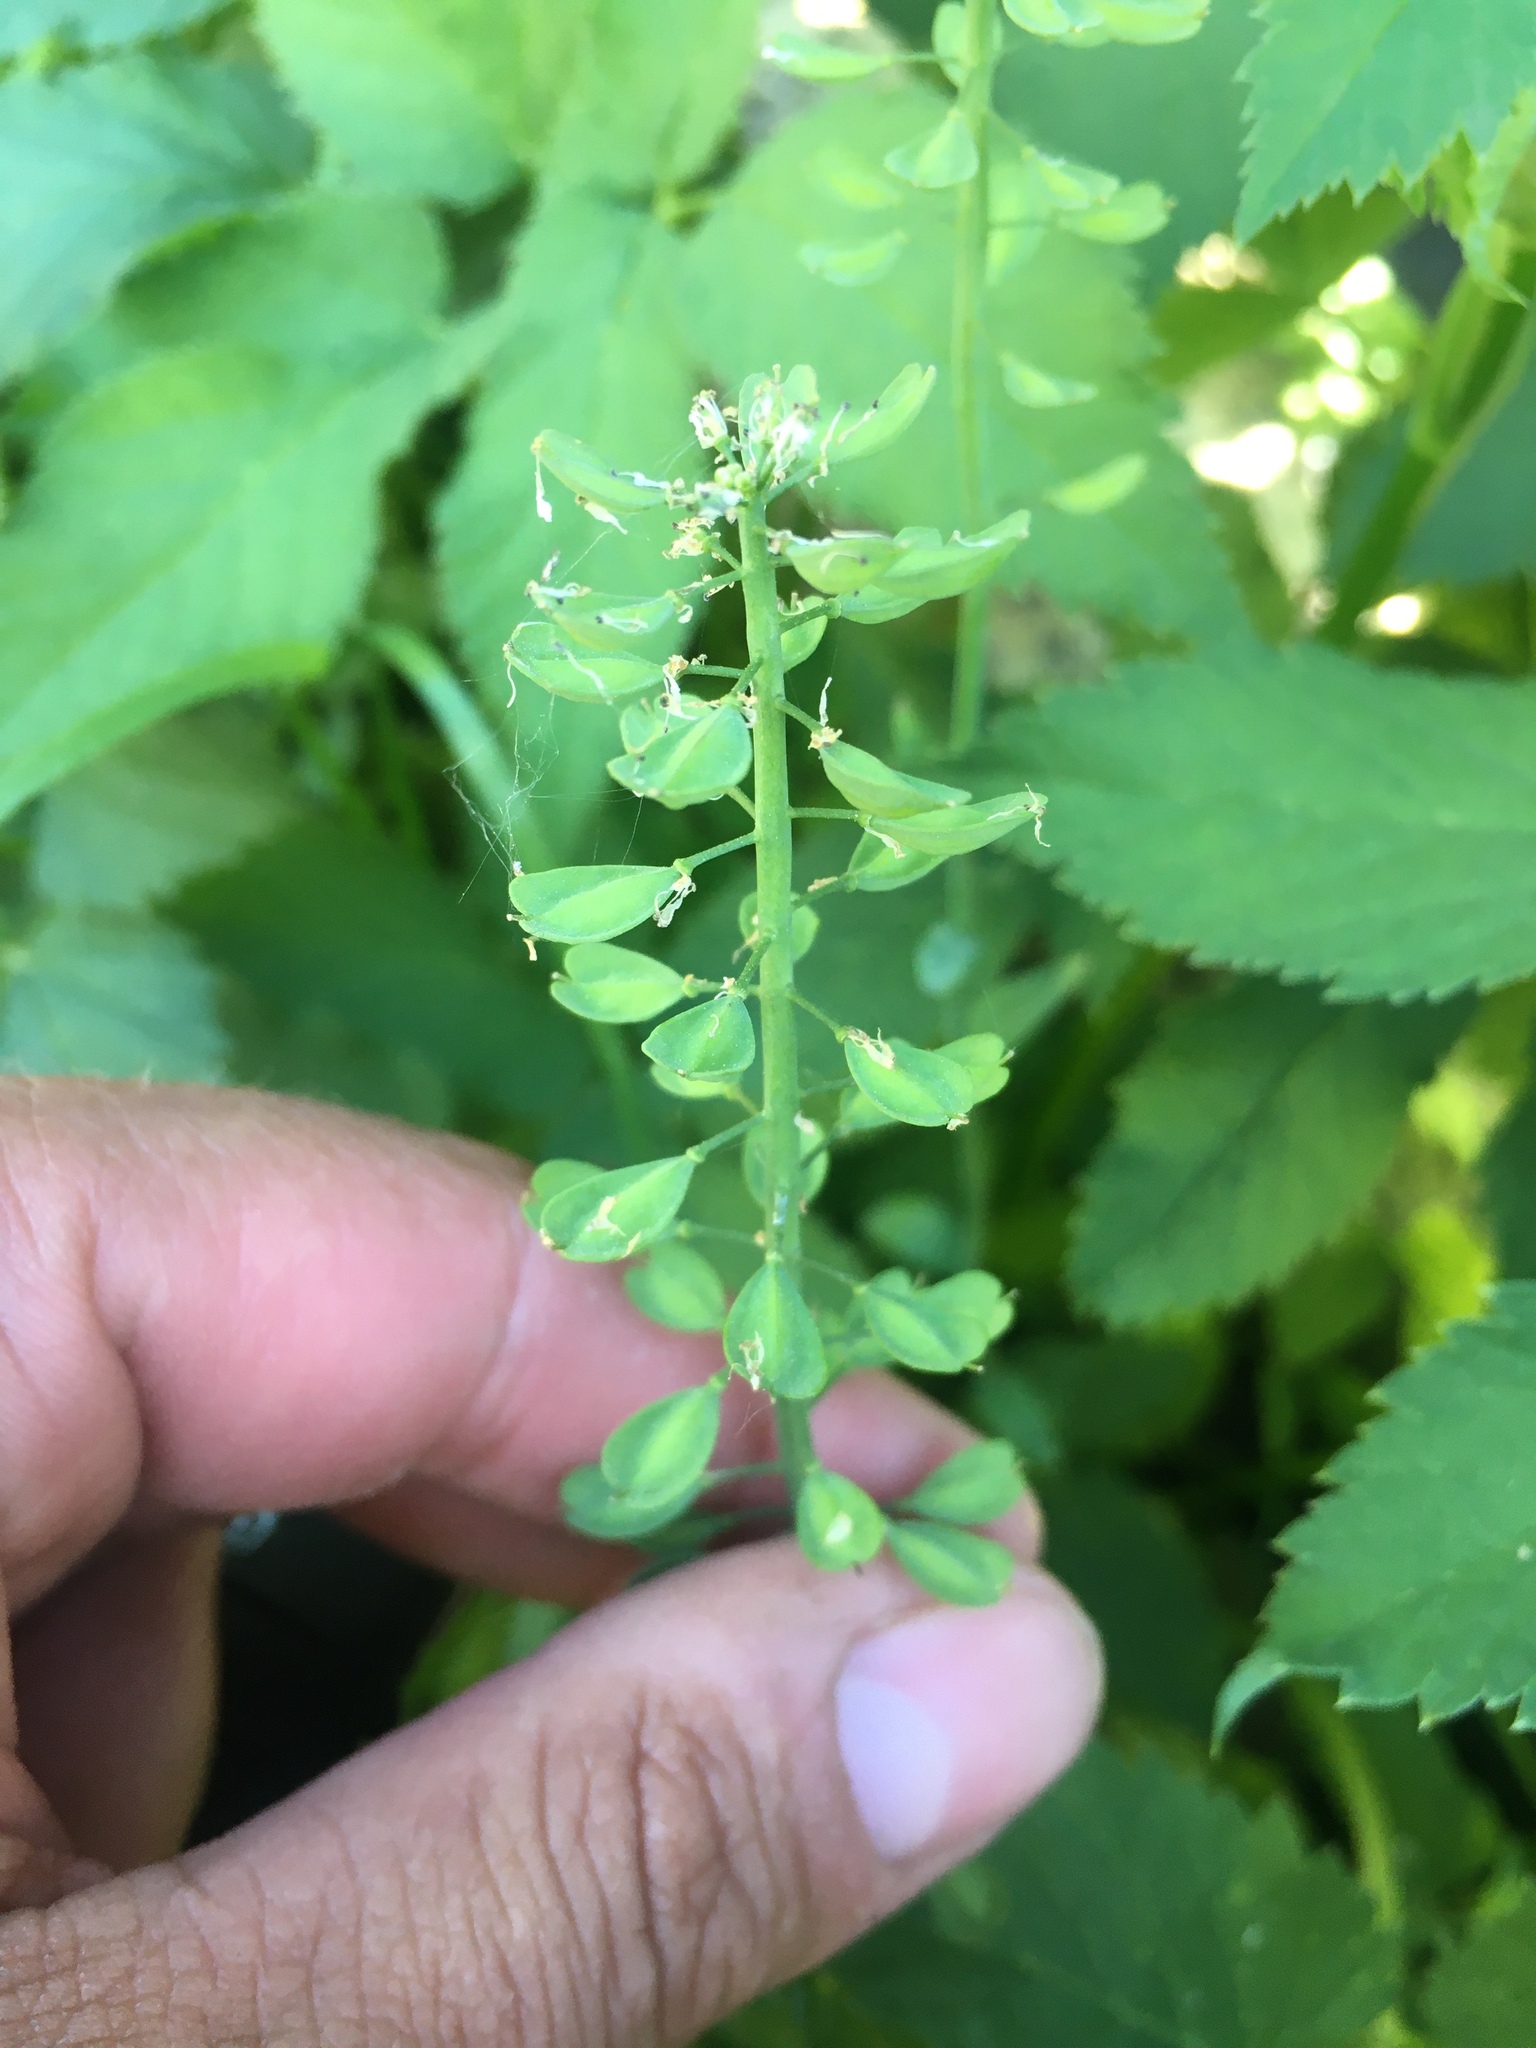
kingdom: Plantae
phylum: Tracheophyta
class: Magnoliopsida
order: Brassicales
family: Brassicaceae
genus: Noccaea
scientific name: Noccaea caerulescens
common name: Alpine pennycress
